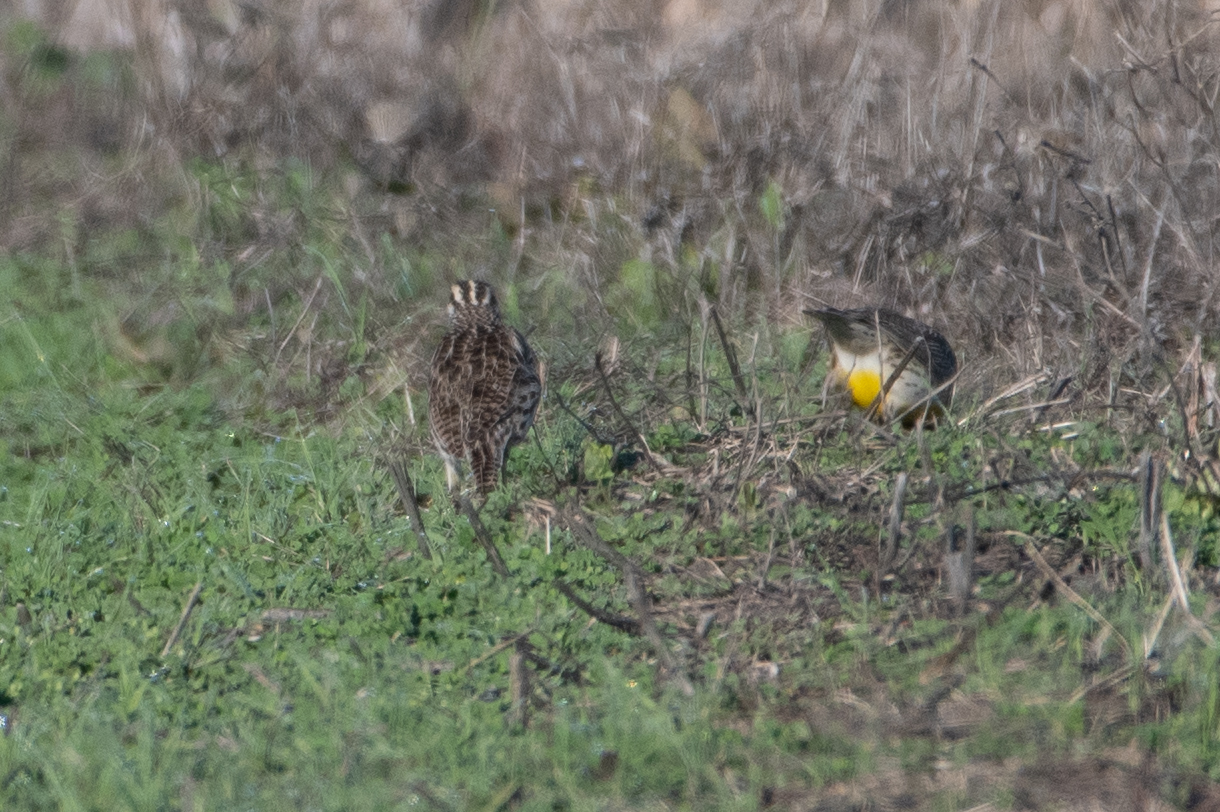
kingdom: Animalia
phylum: Chordata
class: Aves
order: Passeriformes
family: Icteridae
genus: Sturnella
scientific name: Sturnella neglecta
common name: Western meadowlark
